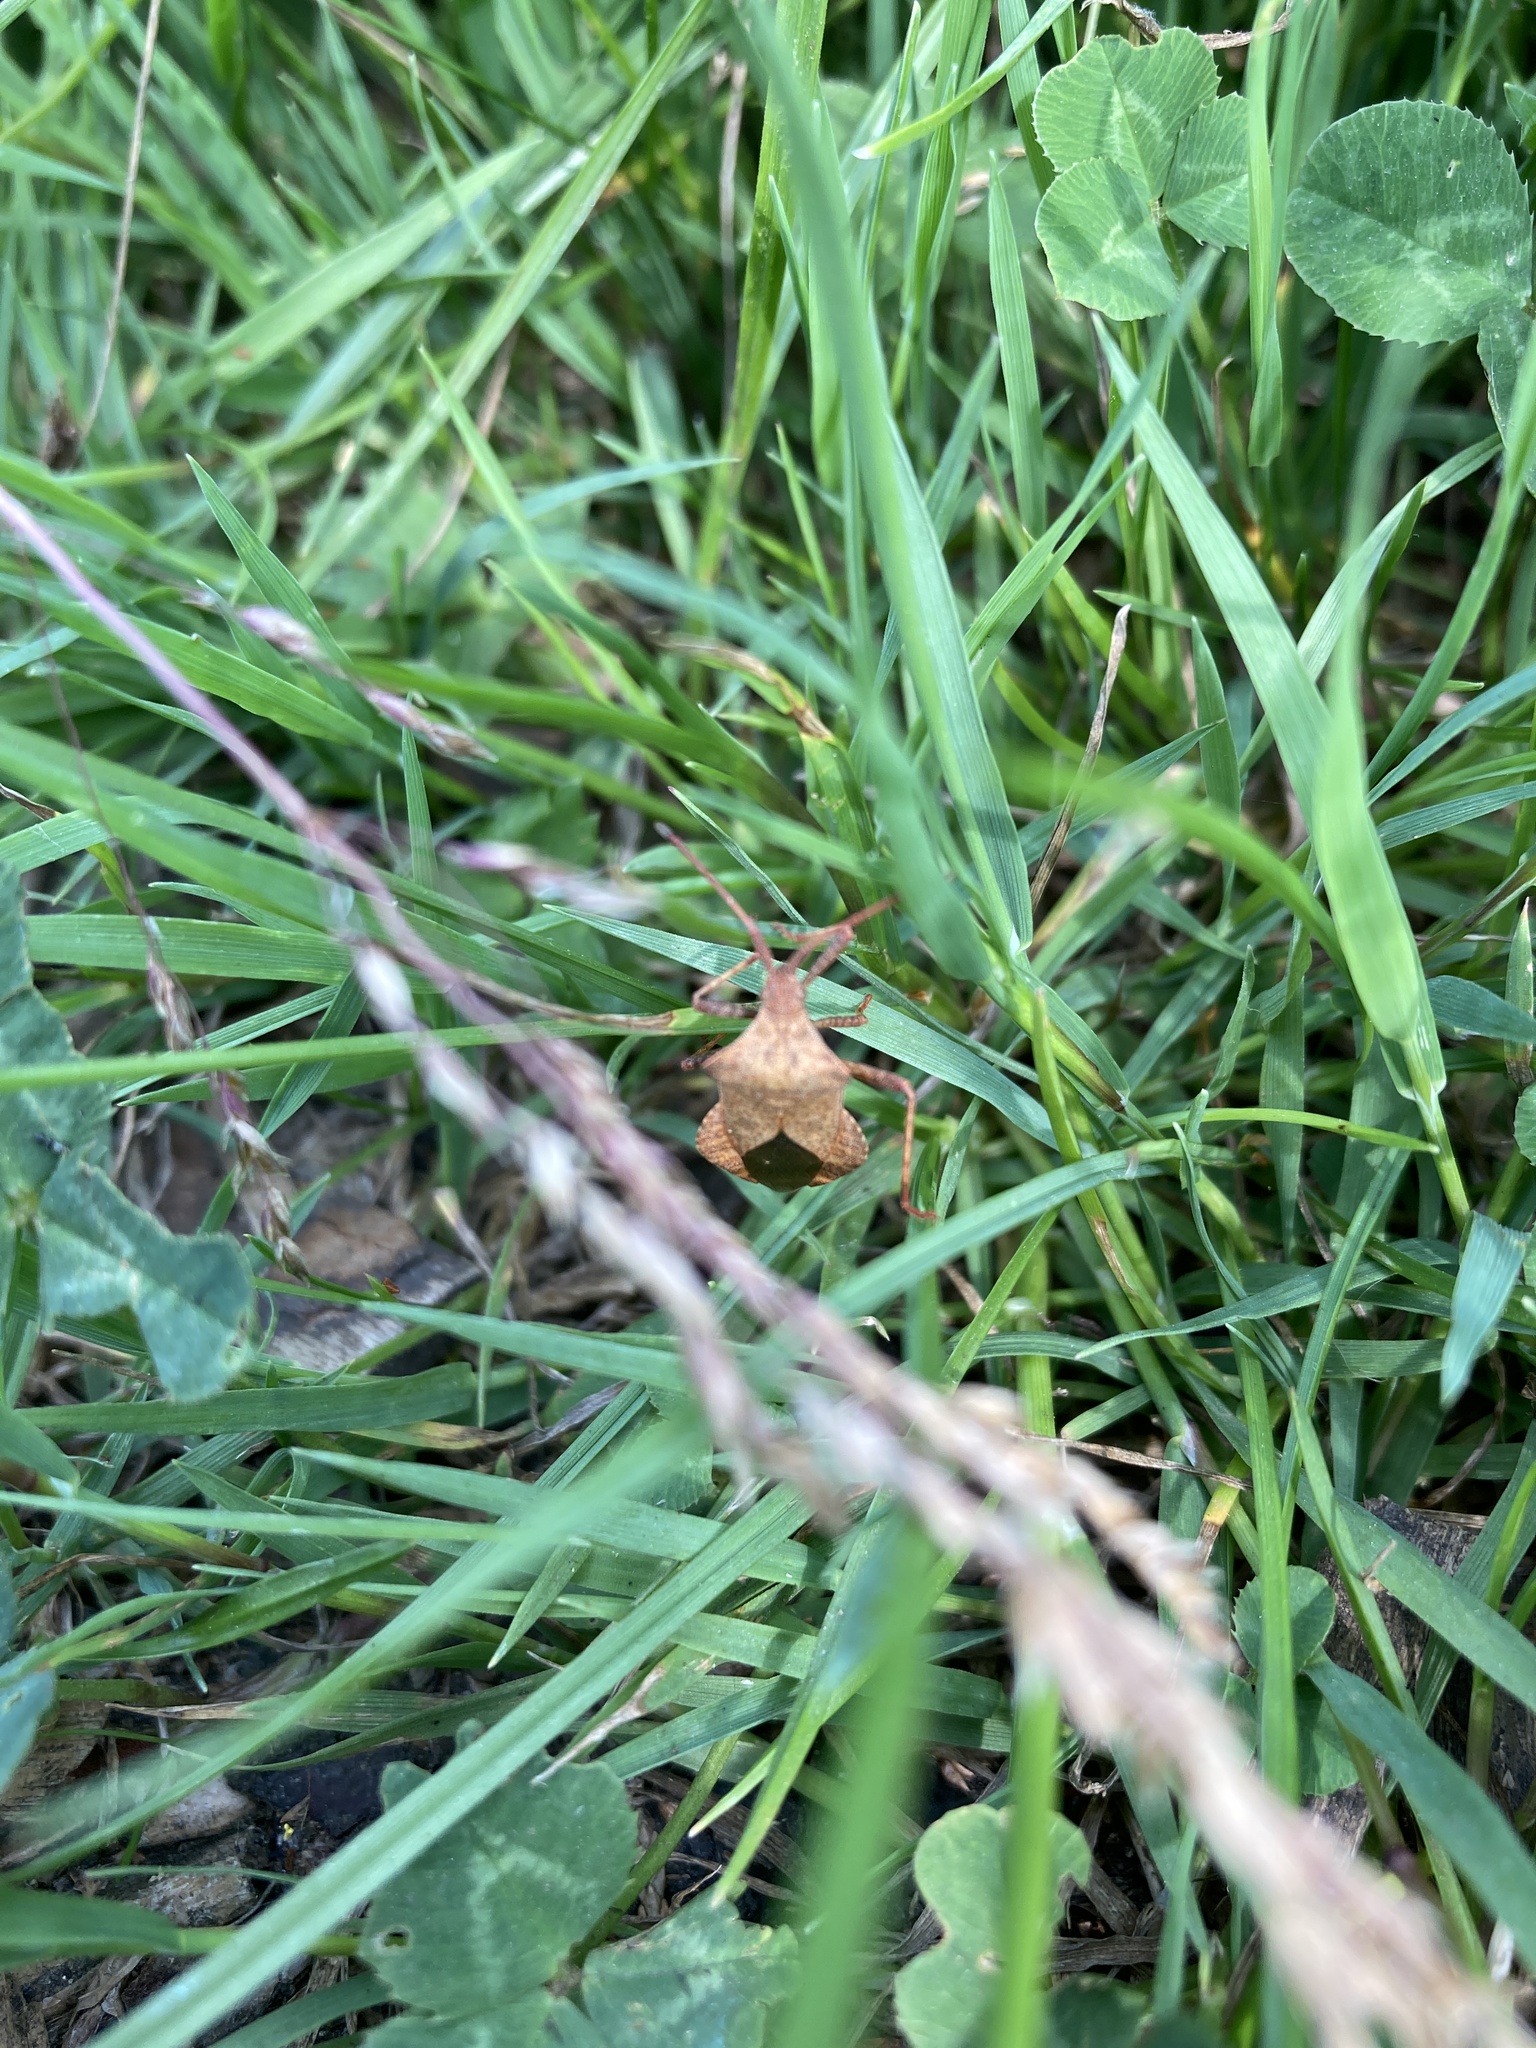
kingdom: Animalia
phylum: Arthropoda
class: Insecta
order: Hemiptera
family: Coreidae
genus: Coreus
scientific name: Coreus marginatus
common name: Dock bug
